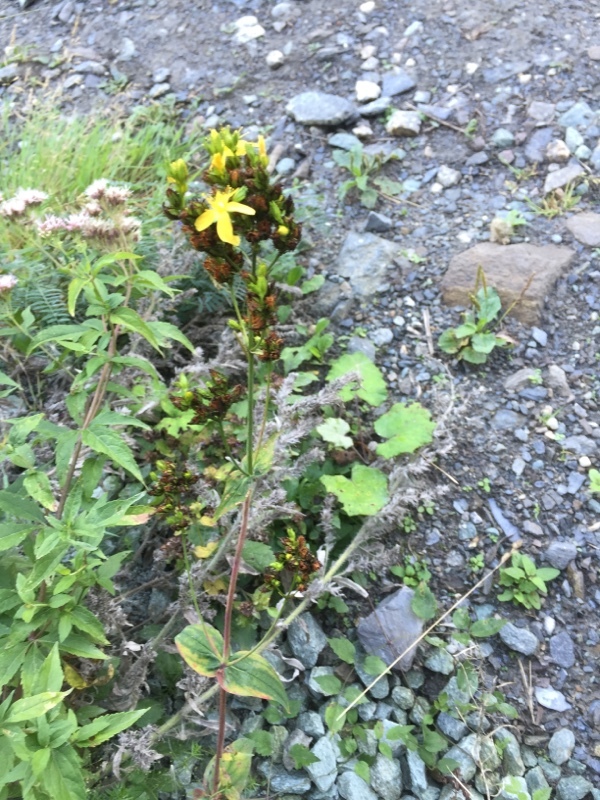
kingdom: Plantae
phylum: Tracheophyta
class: Magnoliopsida
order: Malpighiales
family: Hypericaceae
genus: Hypericum
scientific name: Hypericum montanum
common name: Pale st. john's-wort
